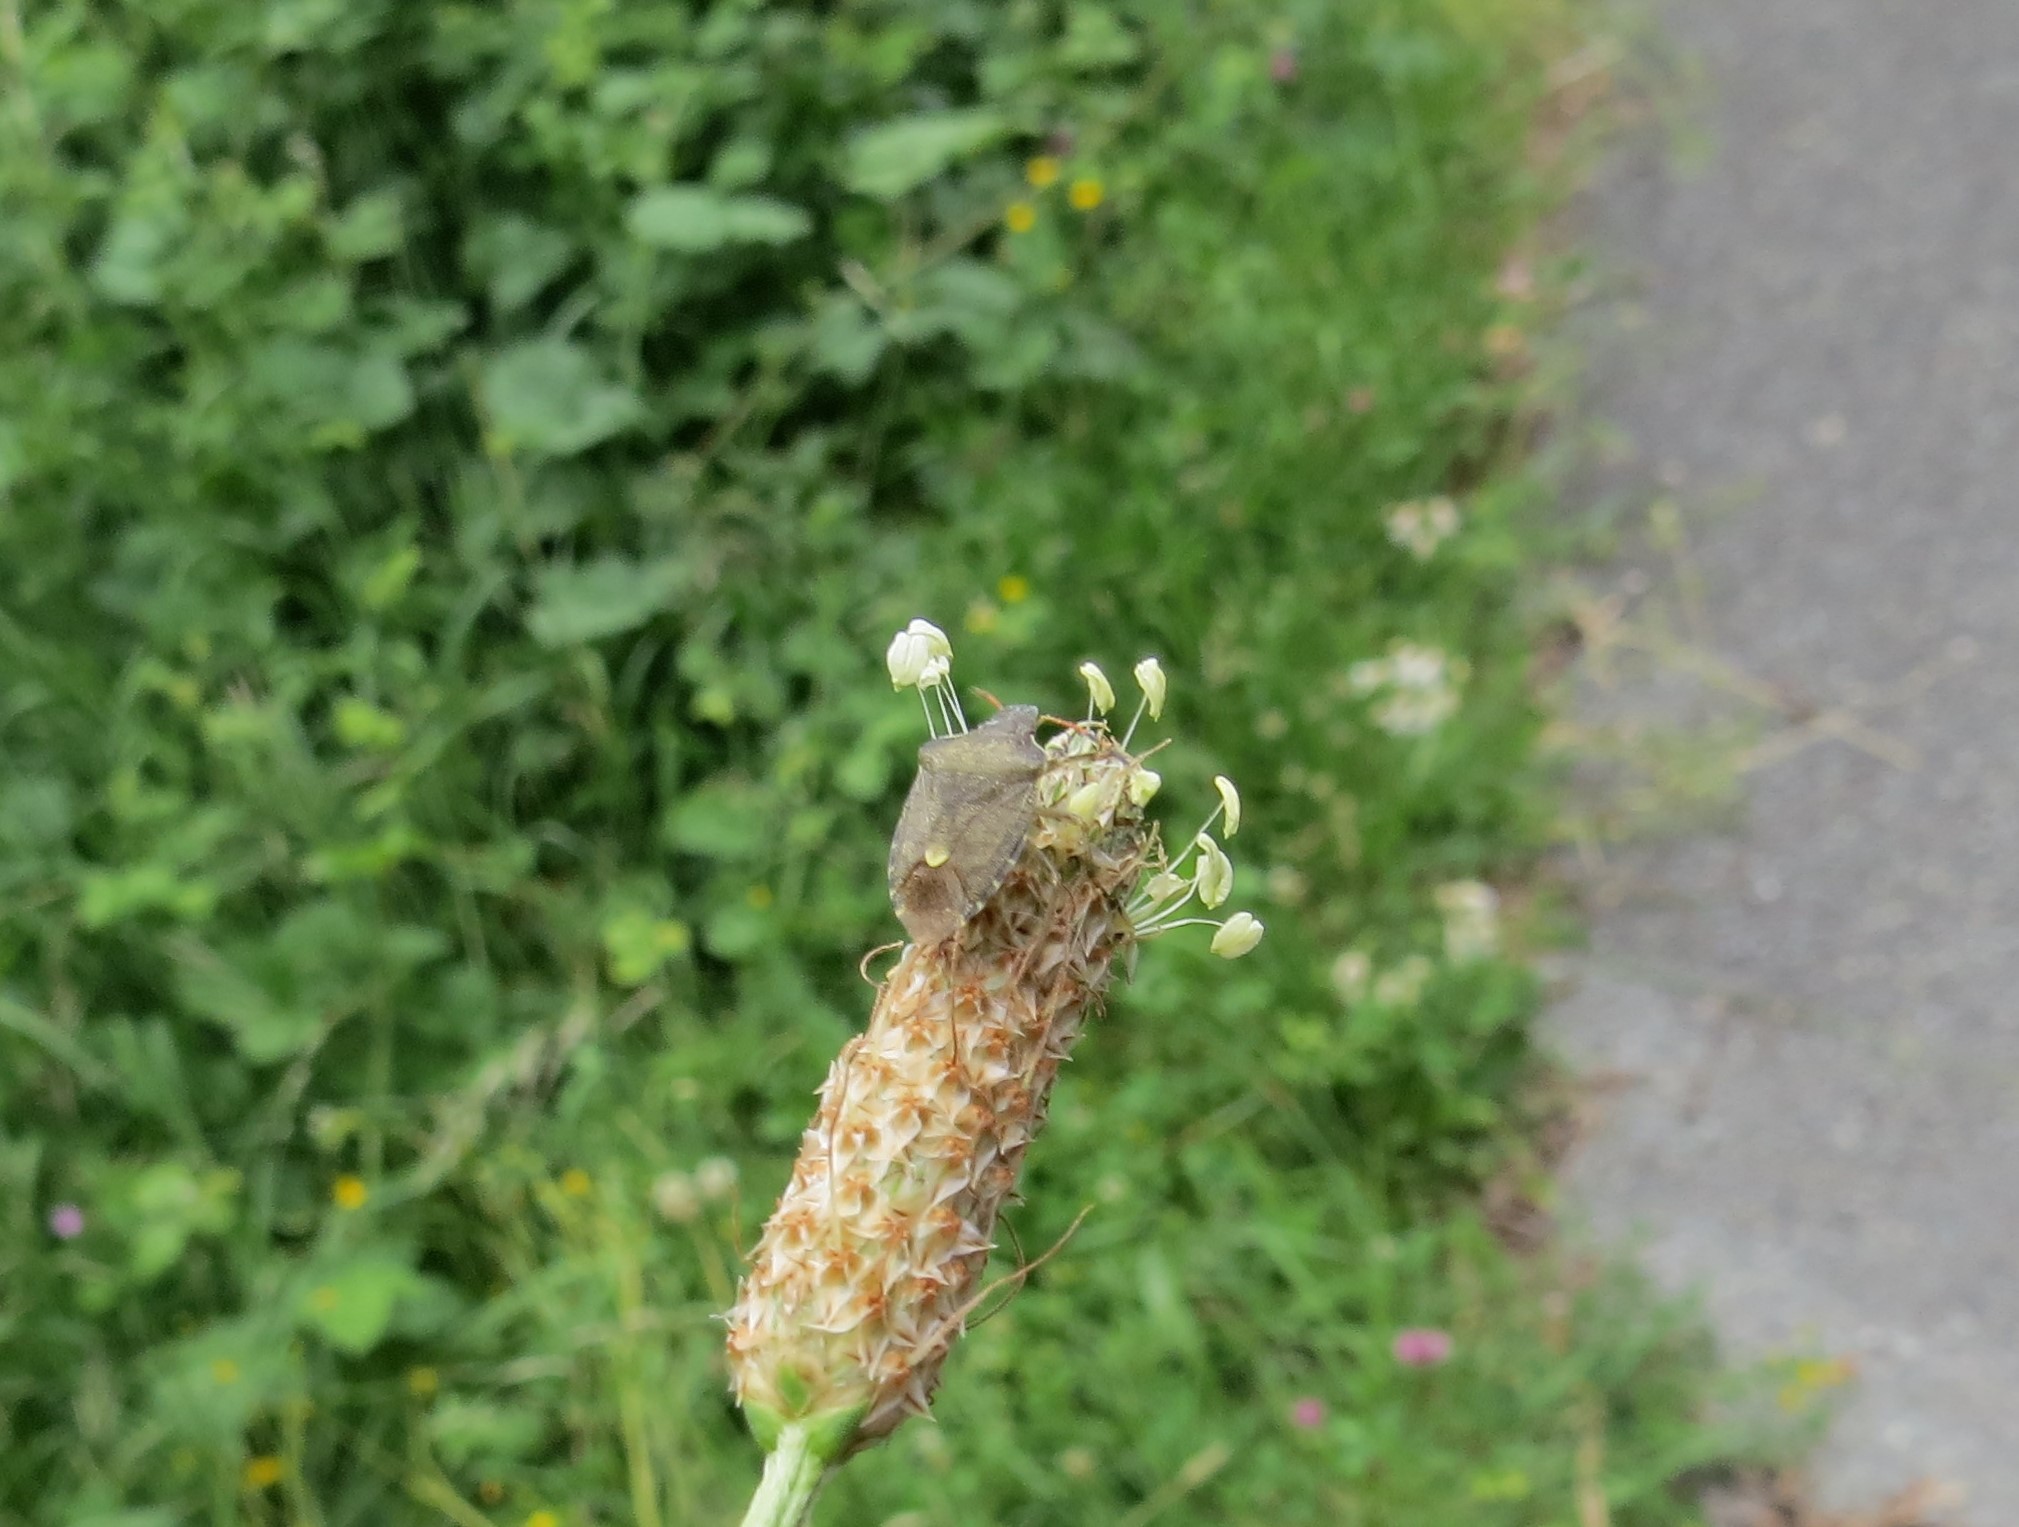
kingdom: Animalia
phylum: Arthropoda
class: Insecta
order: Hemiptera
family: Pentatomidae
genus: Holcostethus
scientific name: Holcostethus strictus
